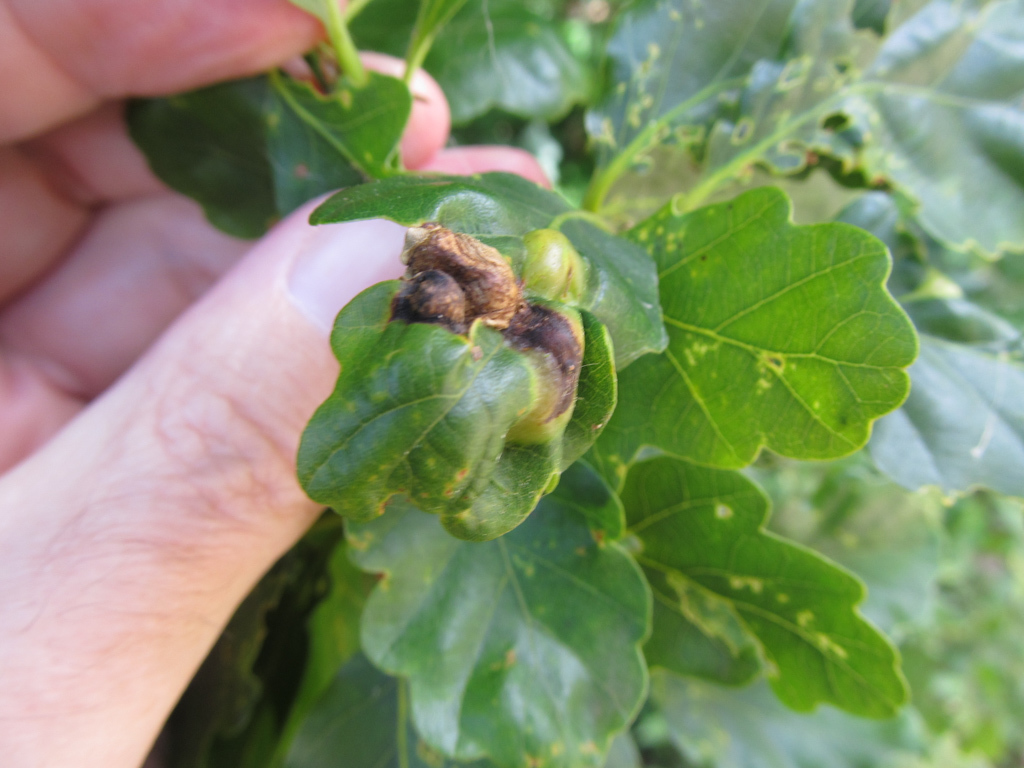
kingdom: Animalia
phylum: Arthropoda
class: Insecta
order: Hymenoptera
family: Cynipidae
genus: Andricus
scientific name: Andricus curvator
